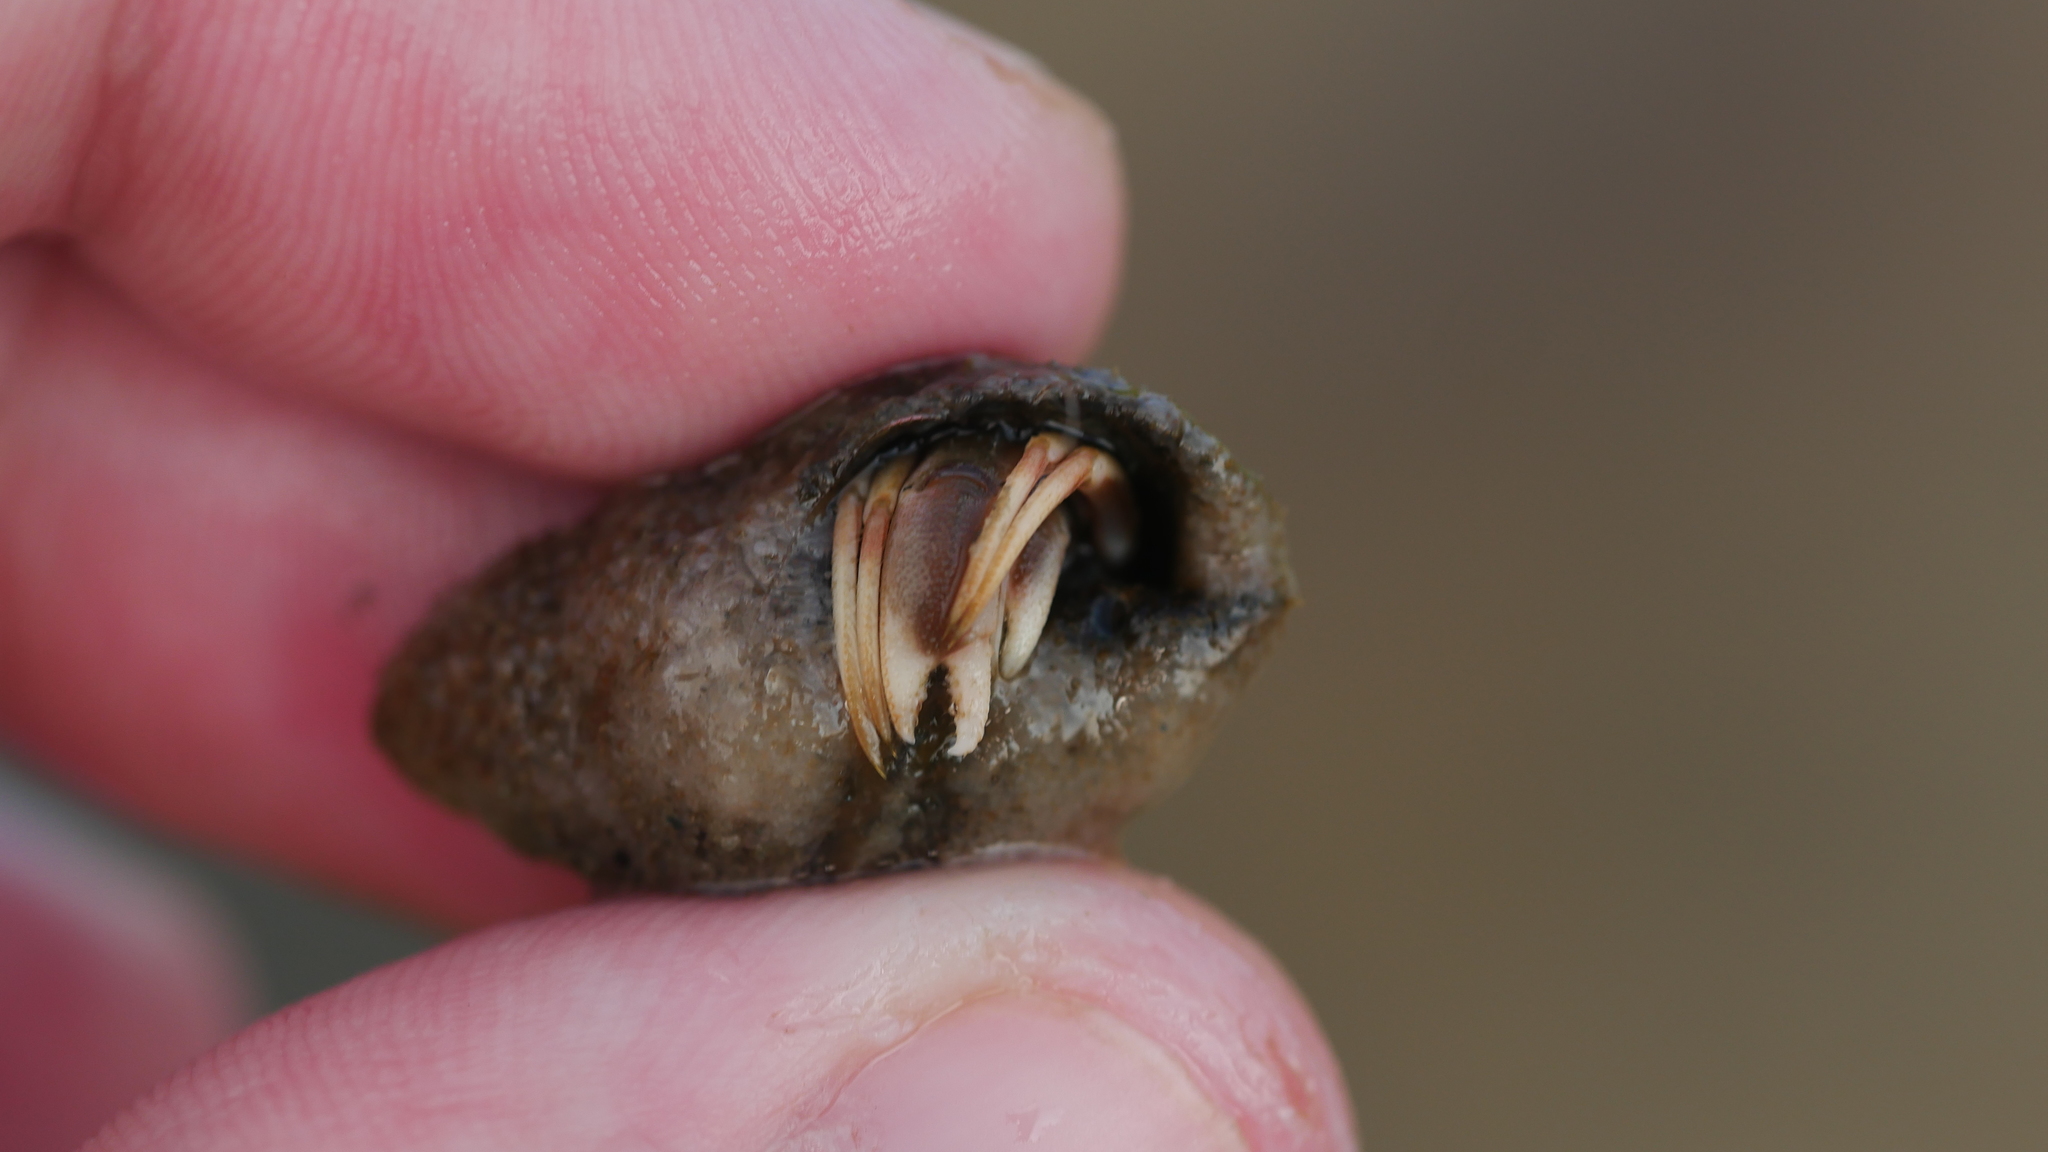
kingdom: Animalia
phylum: Arthropoda
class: Malacostraca
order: Decapoda
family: Paguridae
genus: Pagurus
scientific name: Pagurus longicarpus
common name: Long-armed hermit crab
